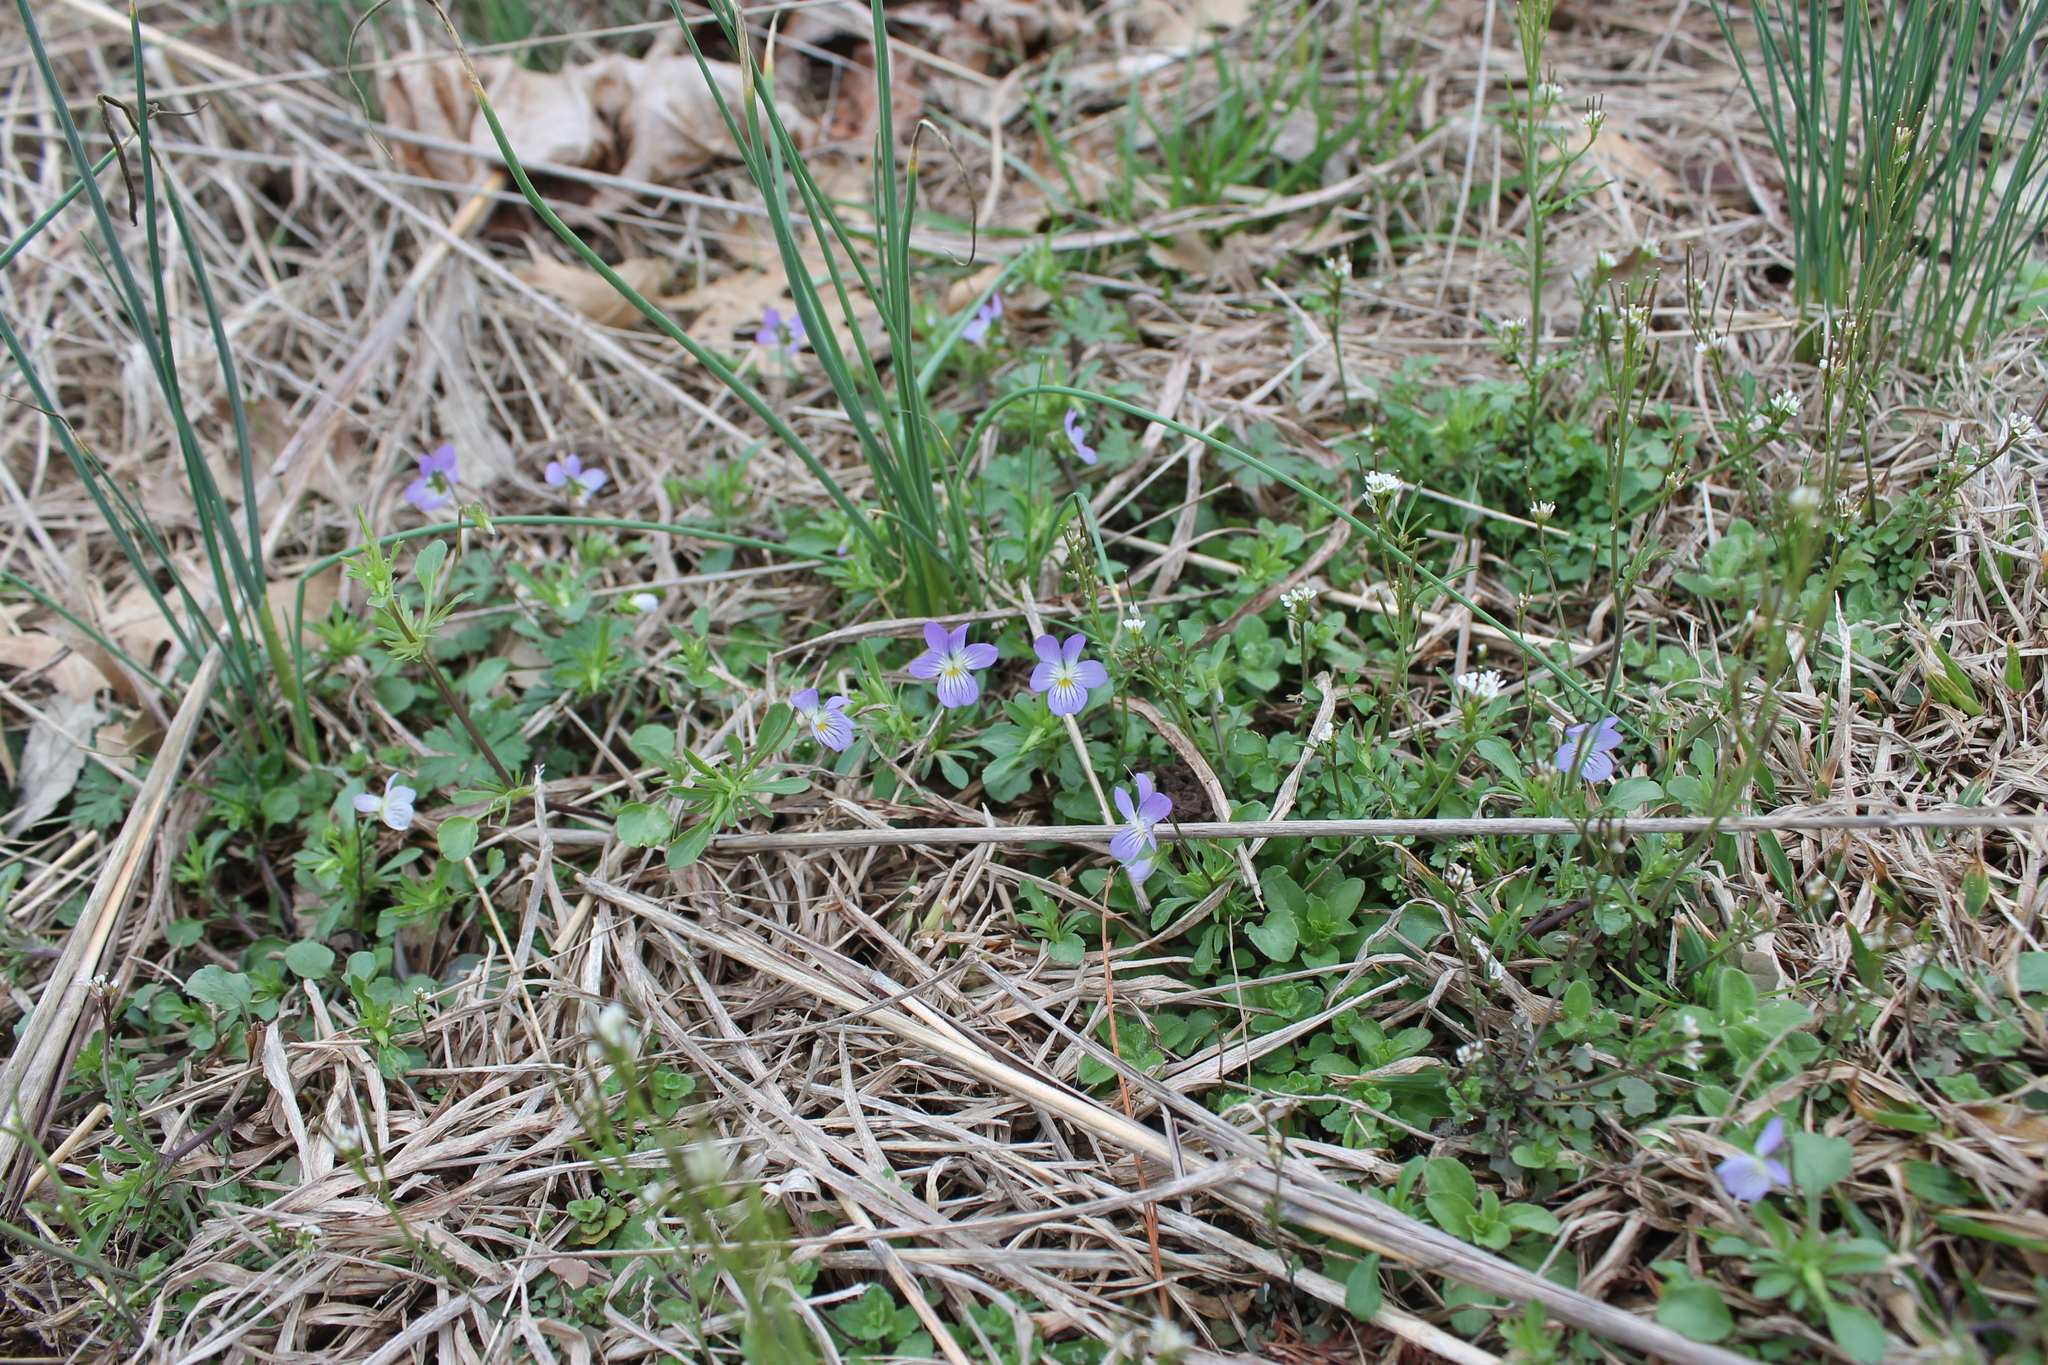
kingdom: Plantae
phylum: Tracheophyta
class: Magnoliopsida
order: Malpighiales
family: Violaceae
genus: Viola
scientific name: Viola rafinesquei
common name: American field pansy
